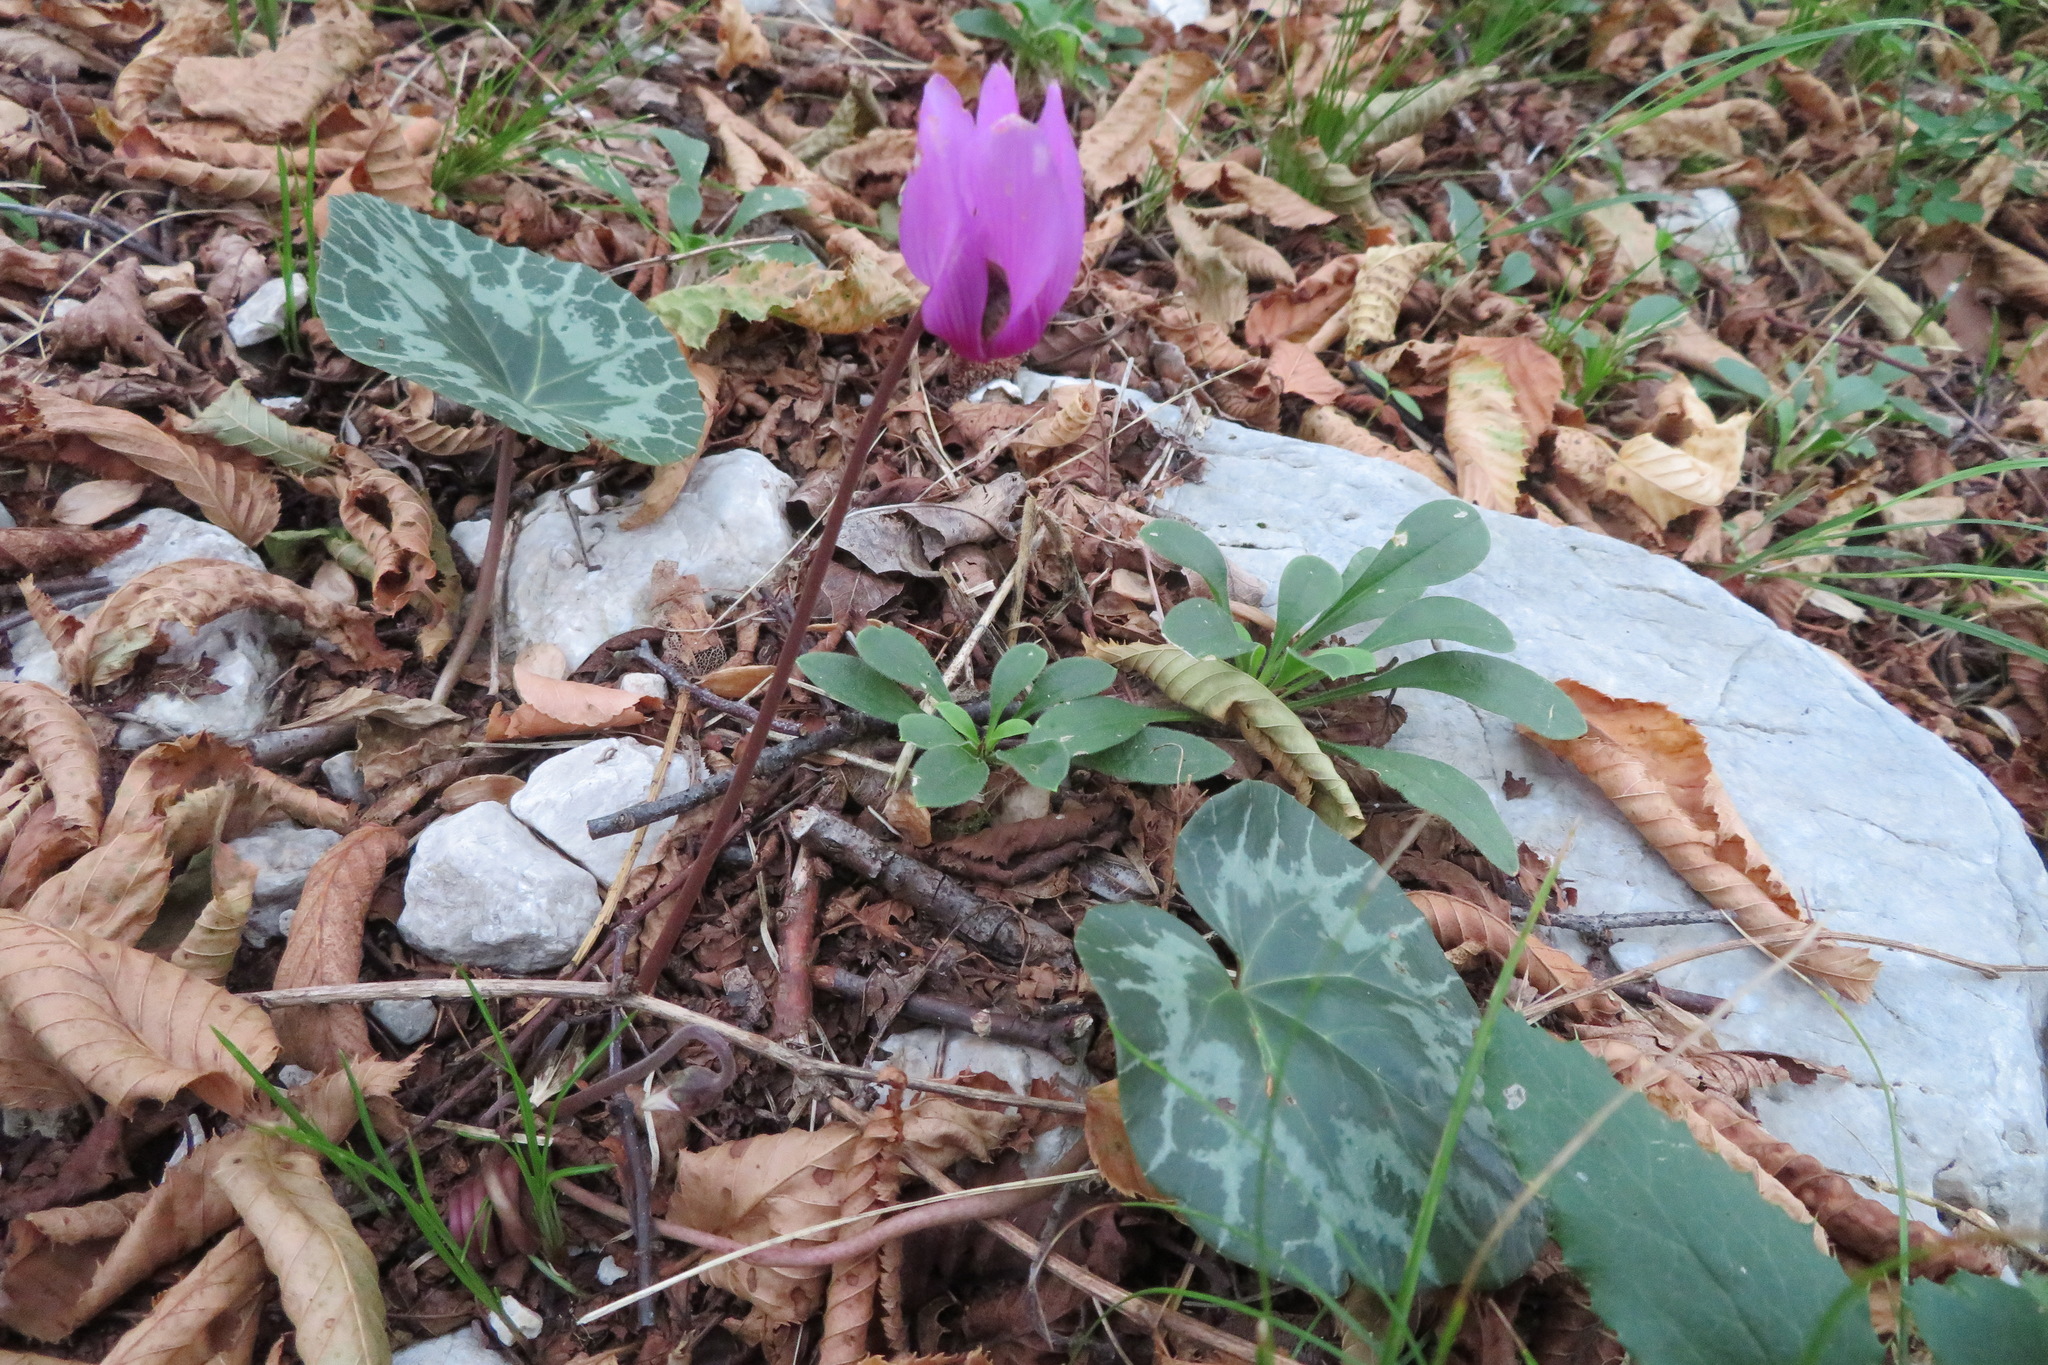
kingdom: Plantae
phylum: Tracheophyta
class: Magnoliopsida
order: Ericales
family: Primulaceae
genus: Cyclamen
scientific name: Cyclamen purpurascens
